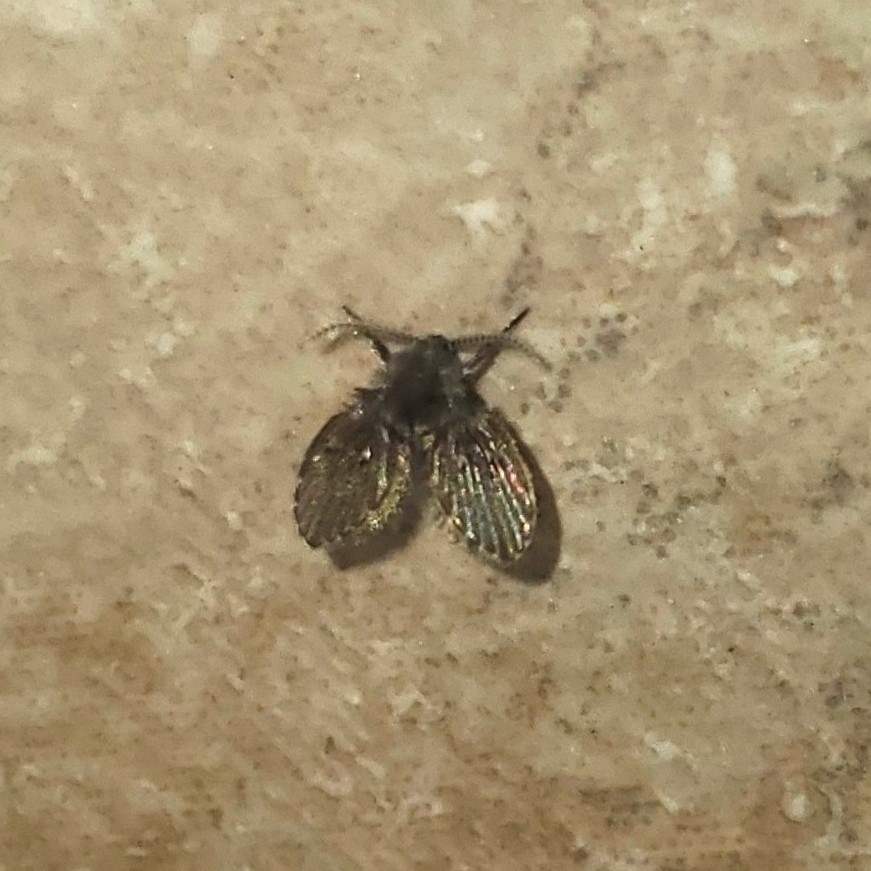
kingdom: Animalia
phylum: Arthropoda
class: Insecta
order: Diptera
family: Psychodidae
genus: Clogmia
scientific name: Clogmia albipunctatus
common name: White-spotted moth fly
